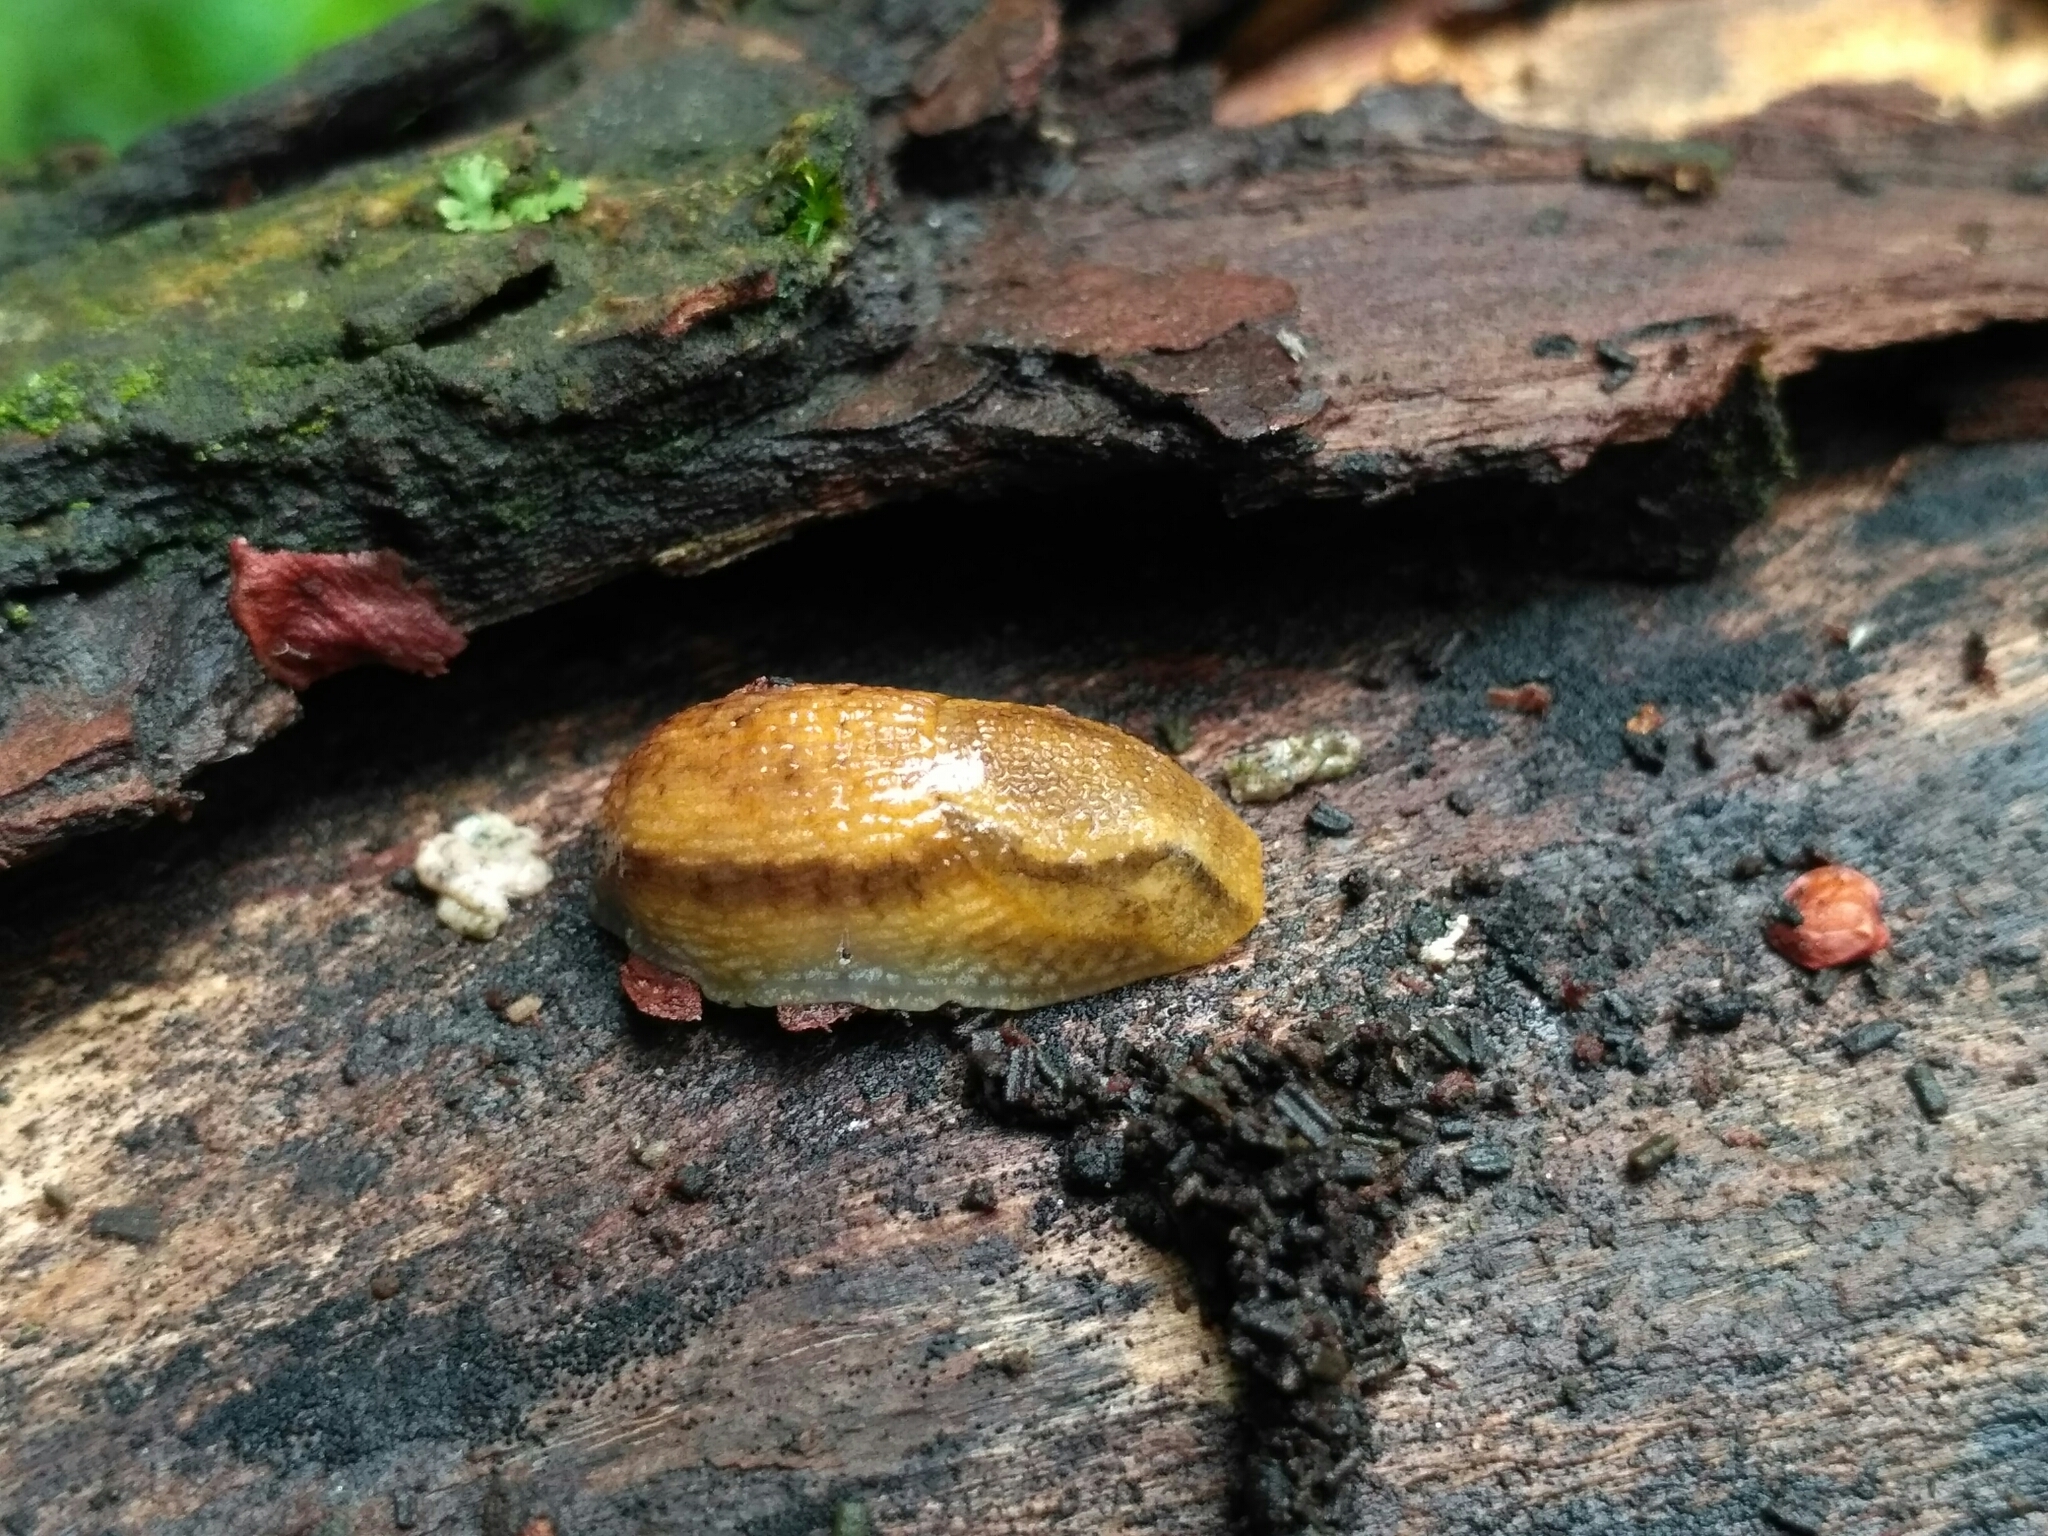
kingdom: Animalia
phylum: Mollusca
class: Gastropoda
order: Stylommatophora
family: Arionidae
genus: Arion
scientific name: Arion fuscus
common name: Northern dusky slug
